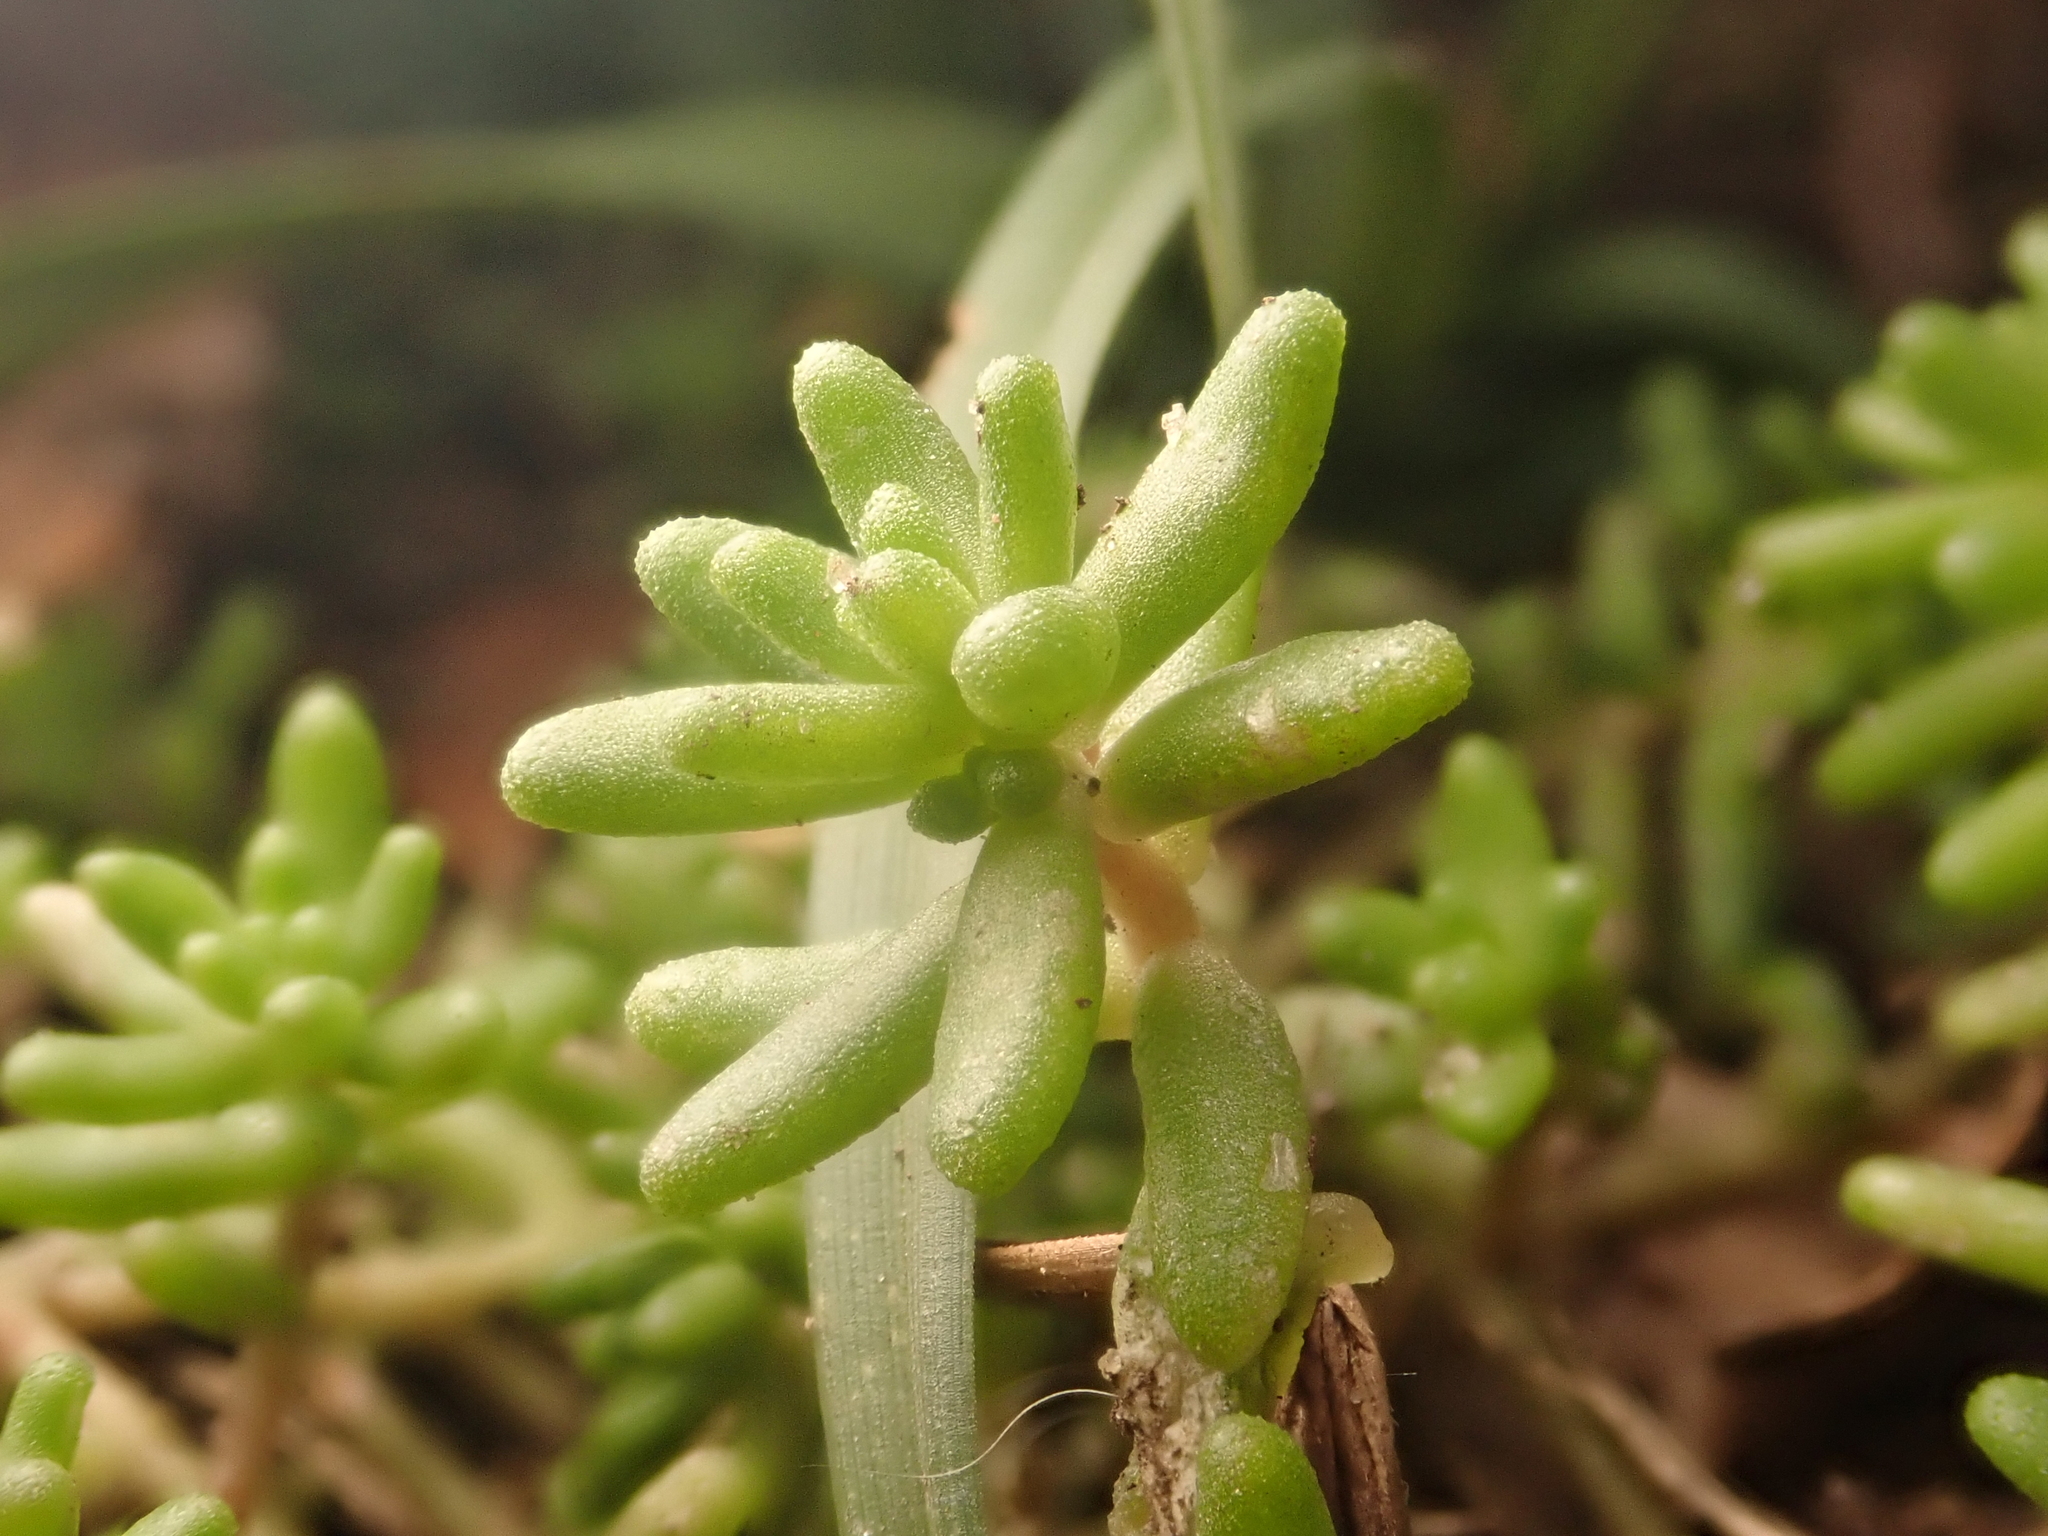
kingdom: Plantae
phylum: Tracheophyta
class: Magnoliopsida
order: Saxifragales
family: Crassulaceae
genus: Sedum
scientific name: Sedum album
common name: White stonecrop
